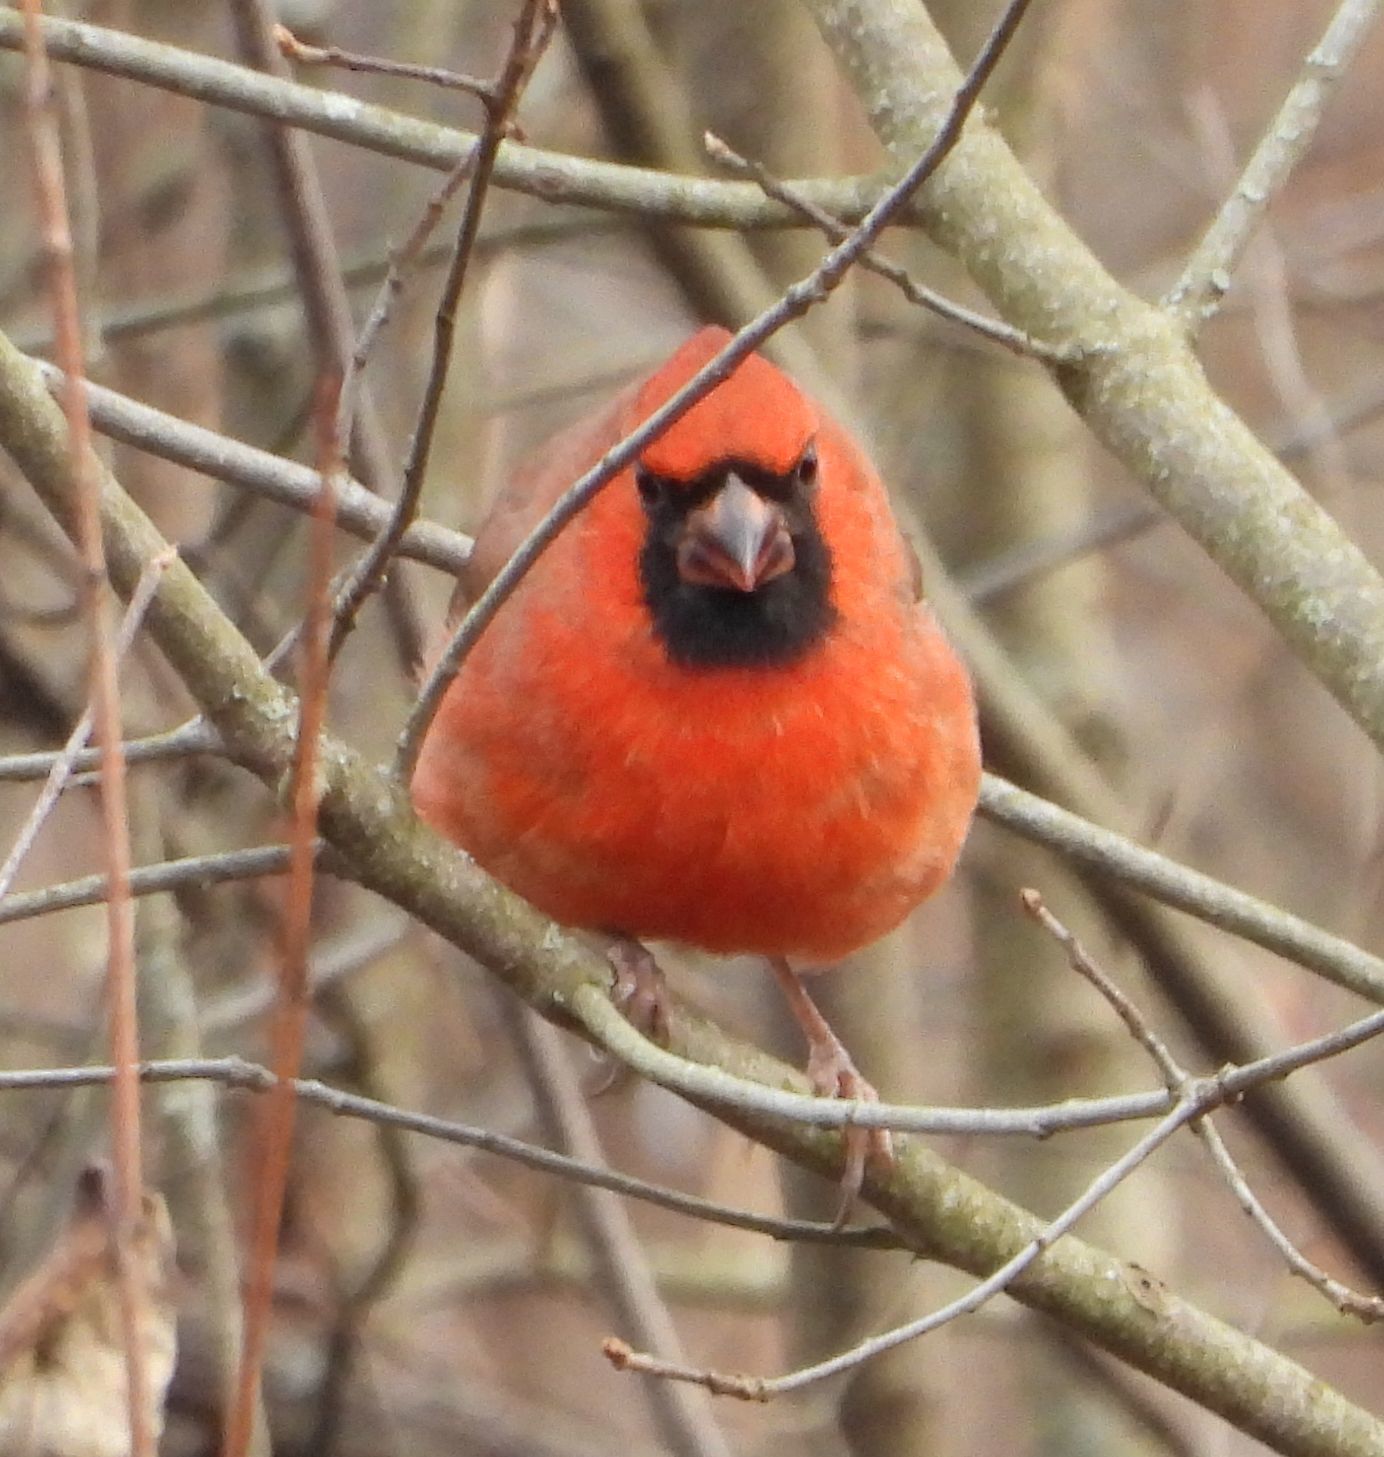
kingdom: Animalia
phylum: Chordata
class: Aves
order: Passeriformes
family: Cardinalidae
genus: Cardinalis
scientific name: Cardinalis cardinalis
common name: Northern cardinal
